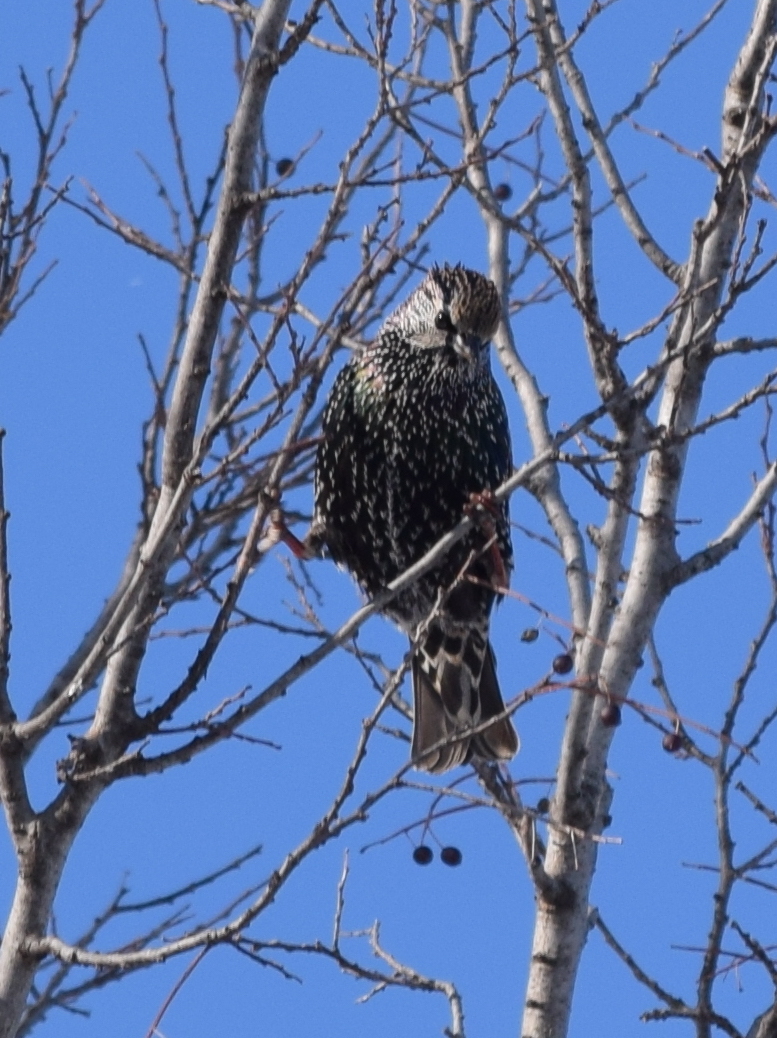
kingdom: Animalia
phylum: Chordata
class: Aves
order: Passeriformes
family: Sturnidae
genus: Sturnus
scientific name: Sturnus vulgaris
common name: Common starling
